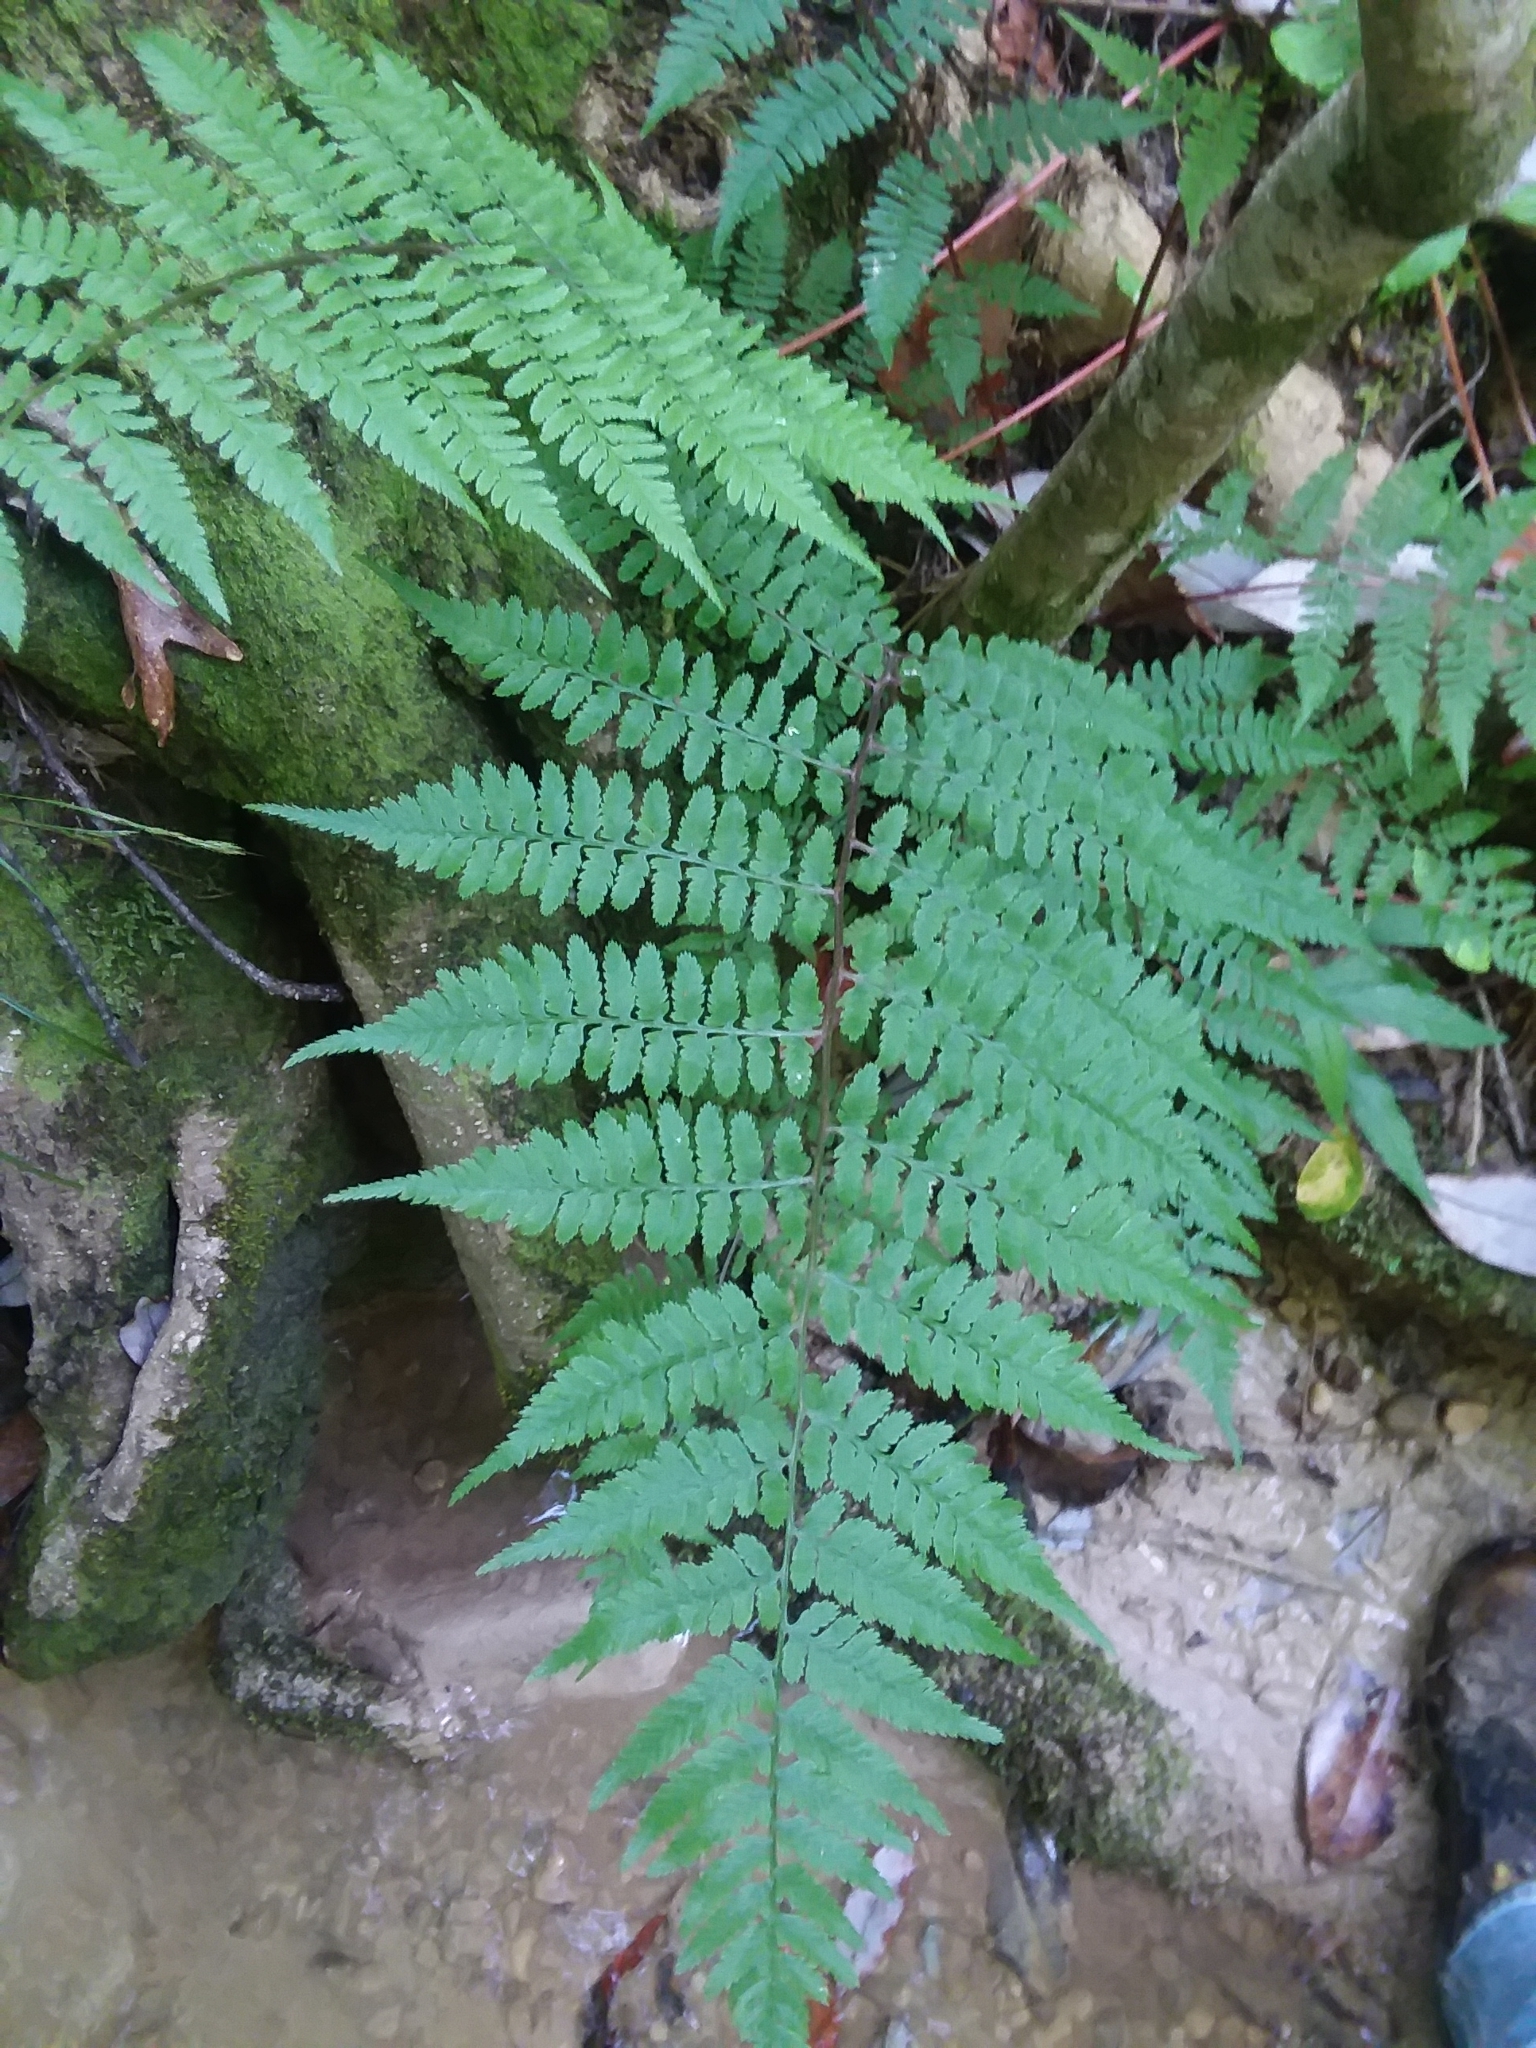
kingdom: Plantae
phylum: Tracheophyta
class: Polypodiopsida
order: Polypodiales
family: Athyriaceae
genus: Athyrium
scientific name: Athyrium asplenioides
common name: Southern lady fern
